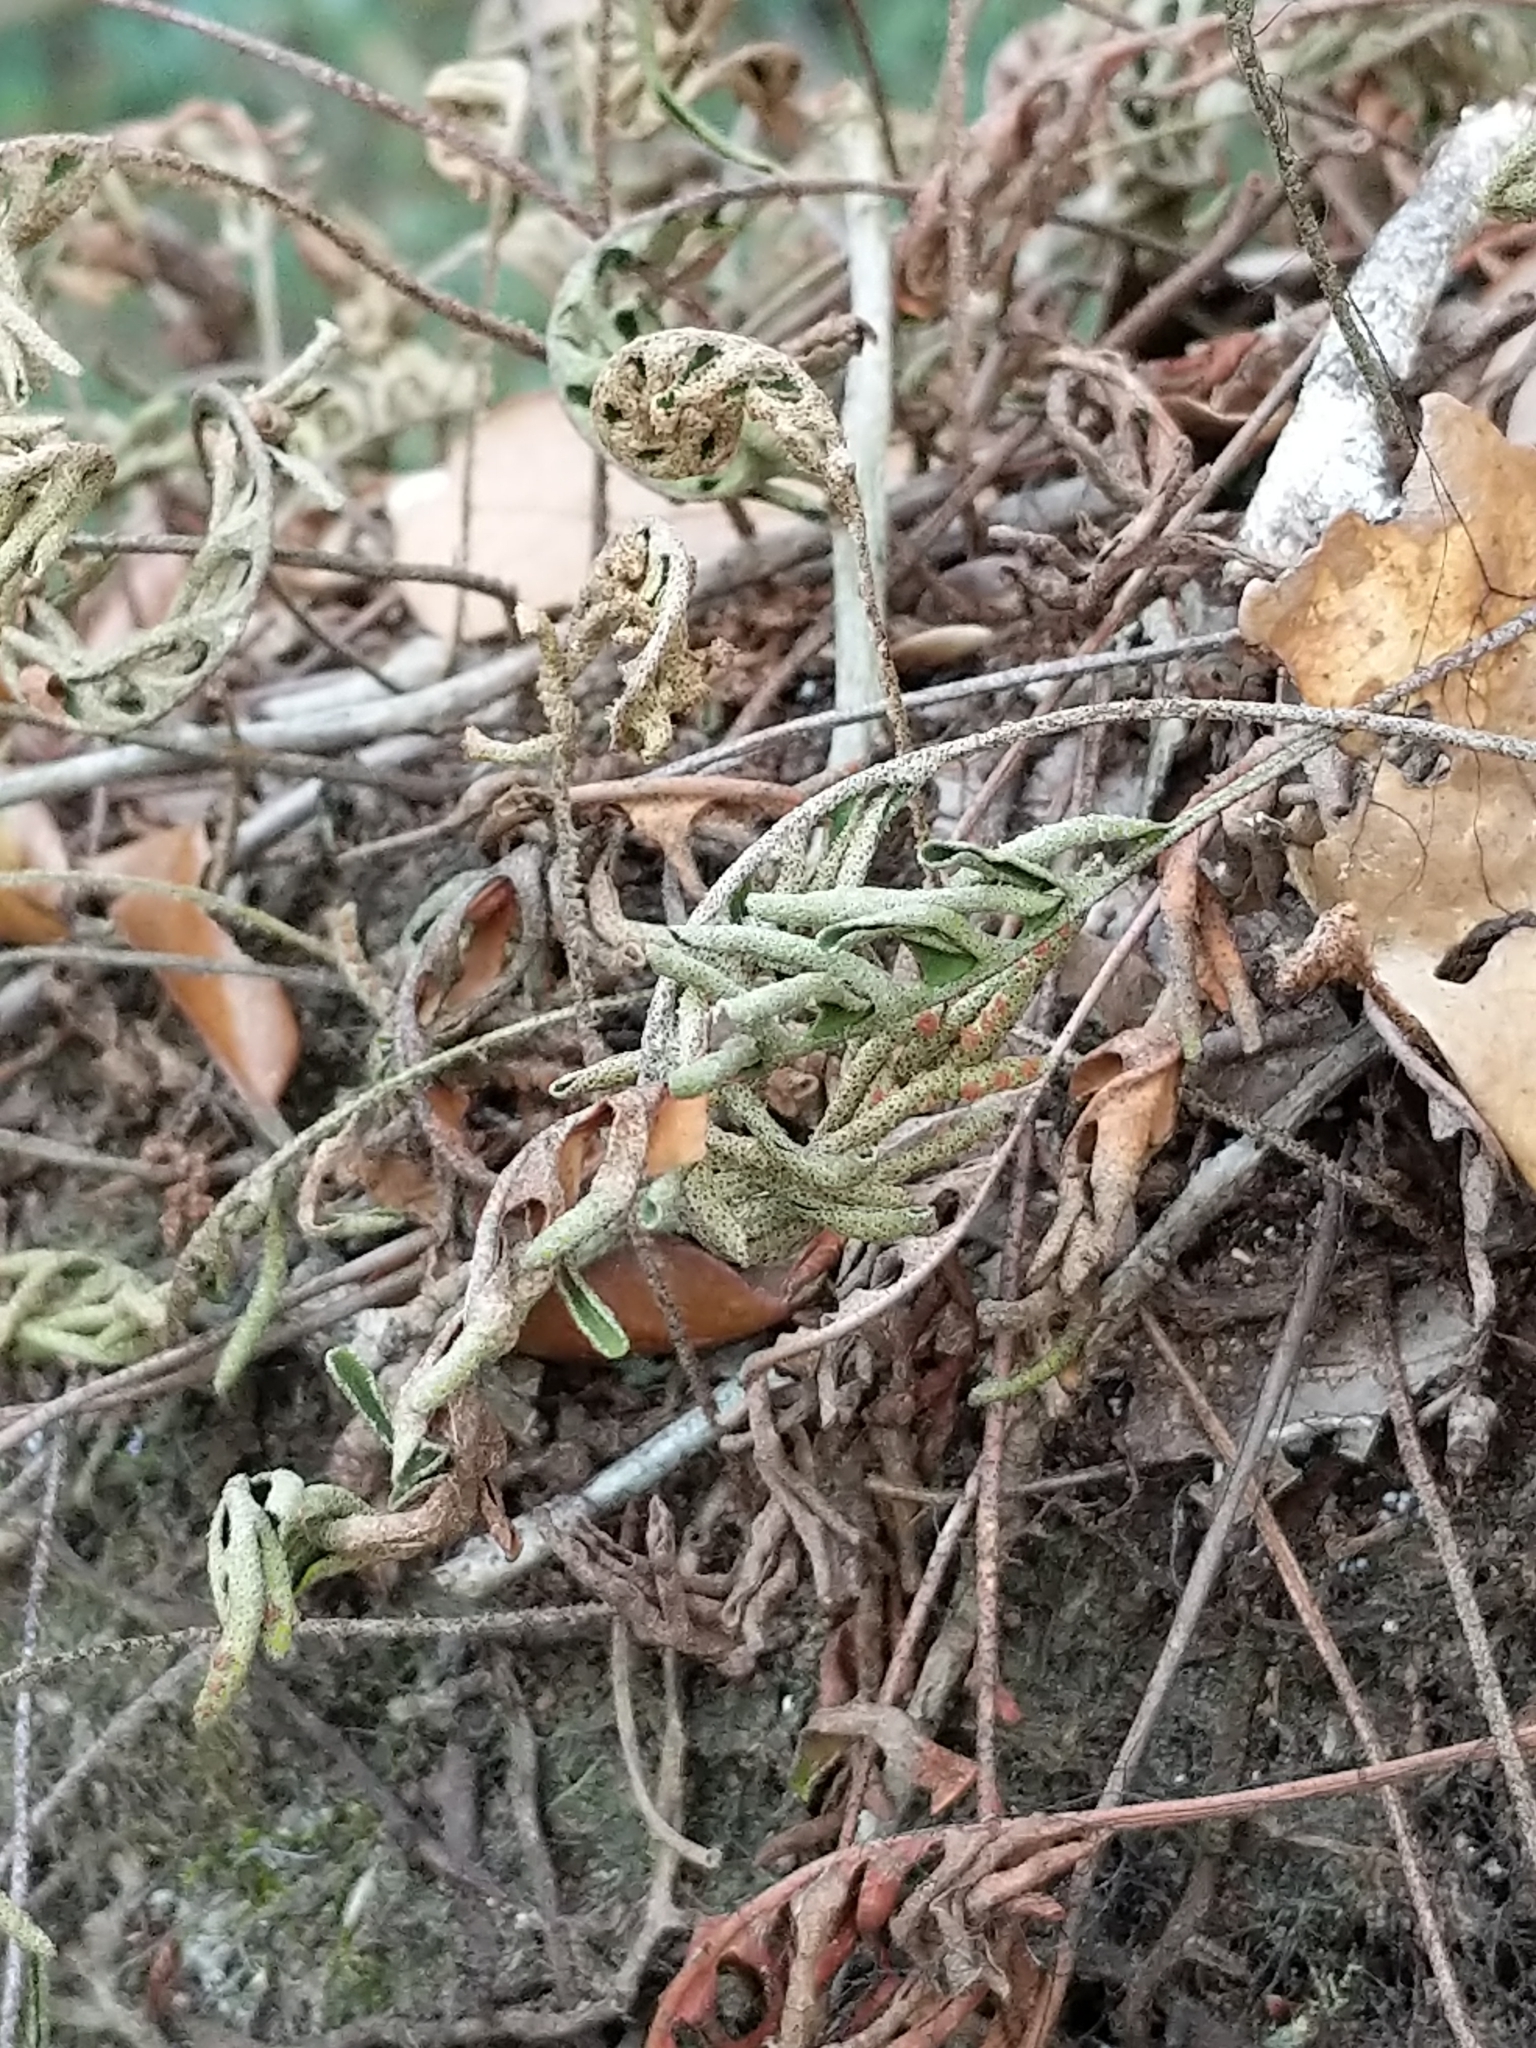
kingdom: Plantae
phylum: Tracheophyta
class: Polypodiopsida
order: Polypodiales
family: Polypodiaceae
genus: Pleopeltis
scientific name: Pleopeltis michauxiana
